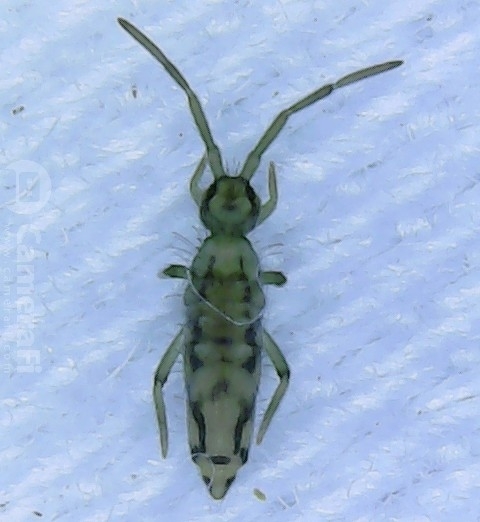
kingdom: Animalia
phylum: Arthropoda
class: Collembola
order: Entomobryomorpha
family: Entomobryidae
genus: Entomobrya
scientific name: Entomobrya katzi
